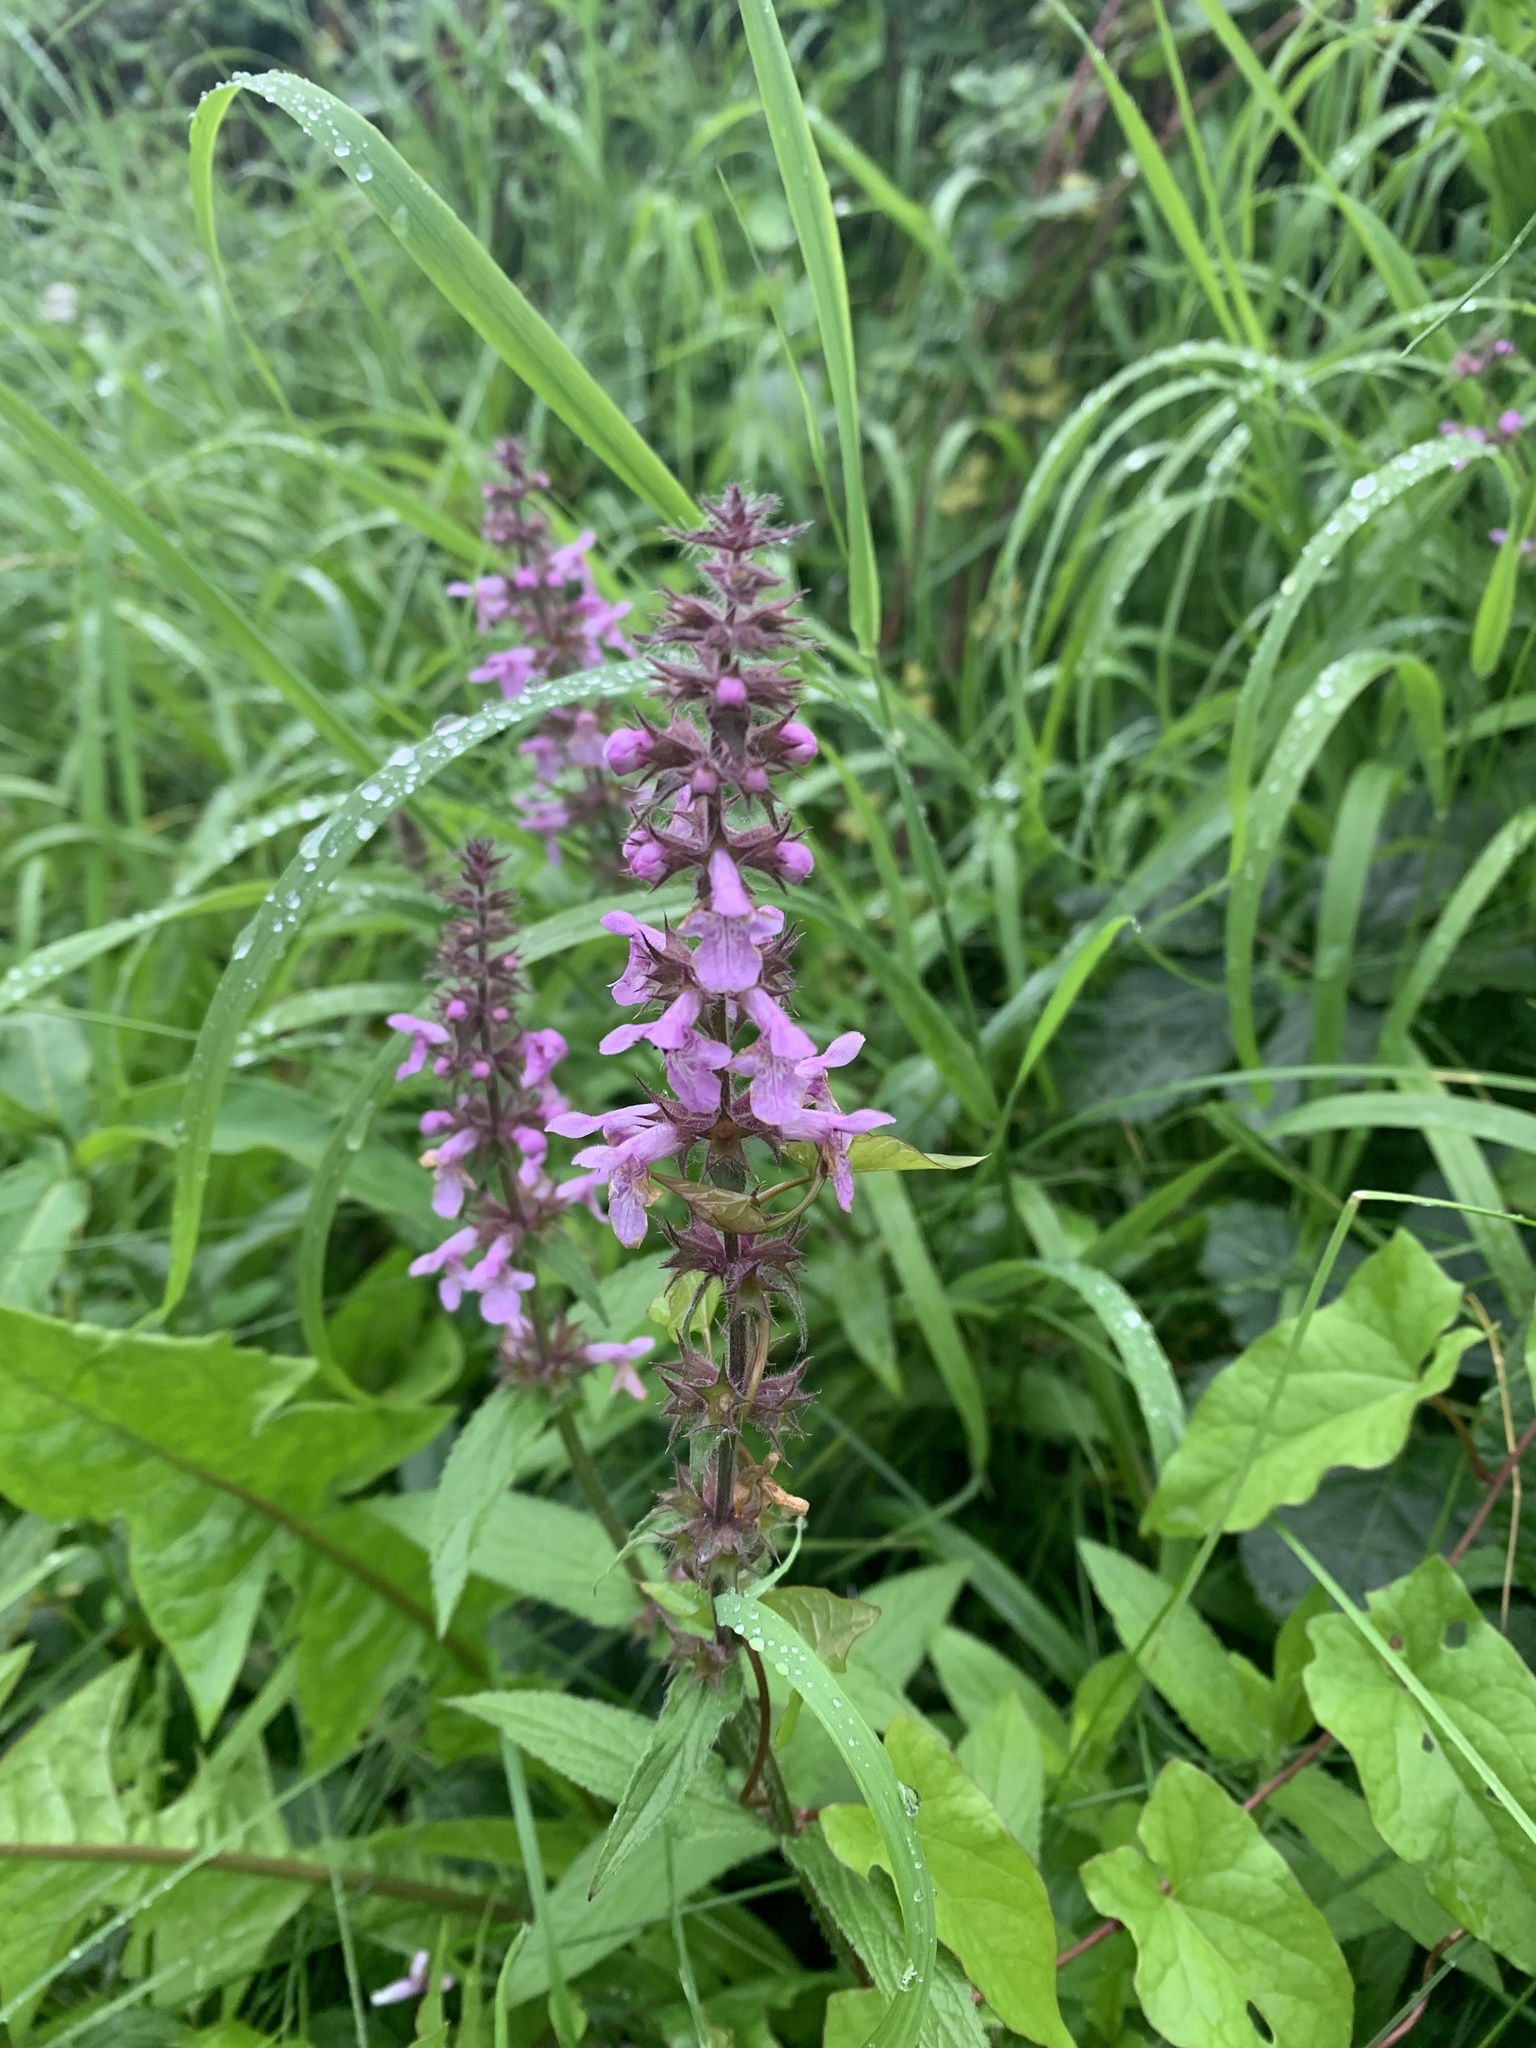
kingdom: Plantae
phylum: Tracheophyta
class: Magnoliopsida
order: Lamiales
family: Lamiaceae
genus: Stachys
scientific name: Stachys palustris
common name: Marsh woundwort
